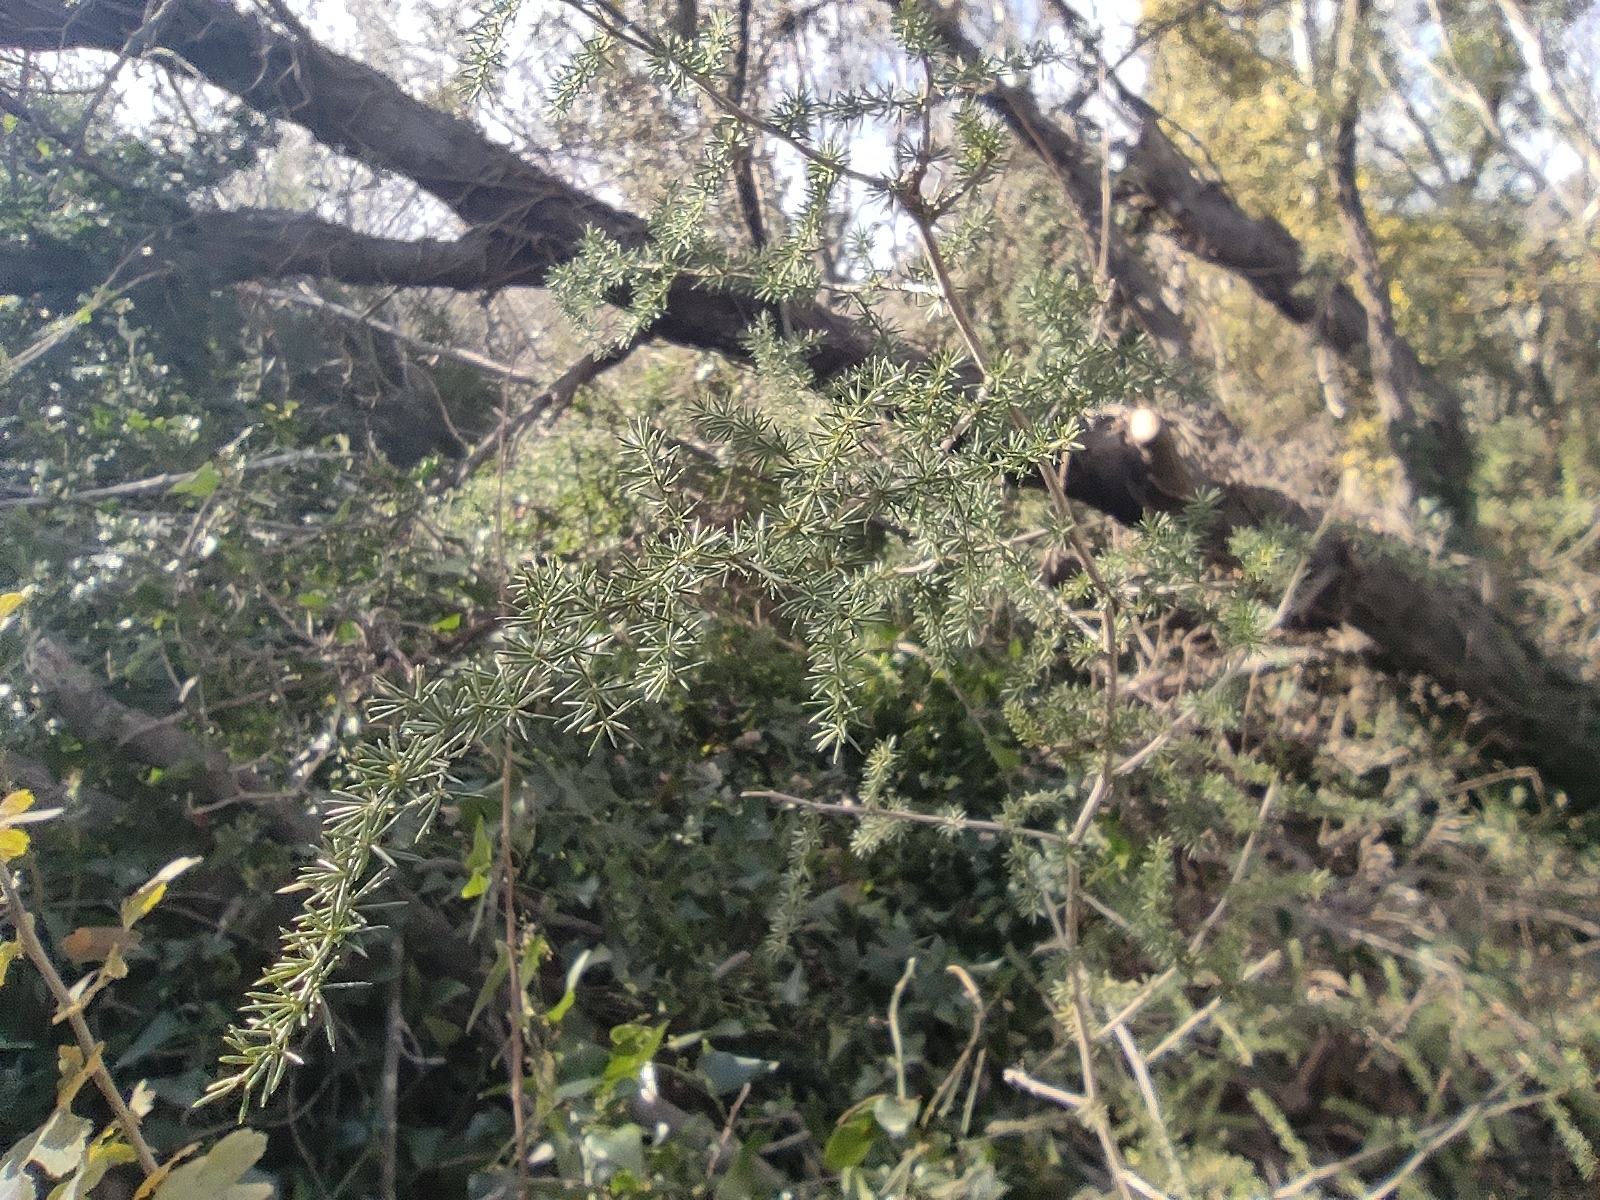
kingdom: Plantae
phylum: Tracheophyta
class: Liliopsida
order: Asparagales
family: Asparagaceae
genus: Asparagus
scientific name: Asparagus acutifolius
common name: Wild asparagus
